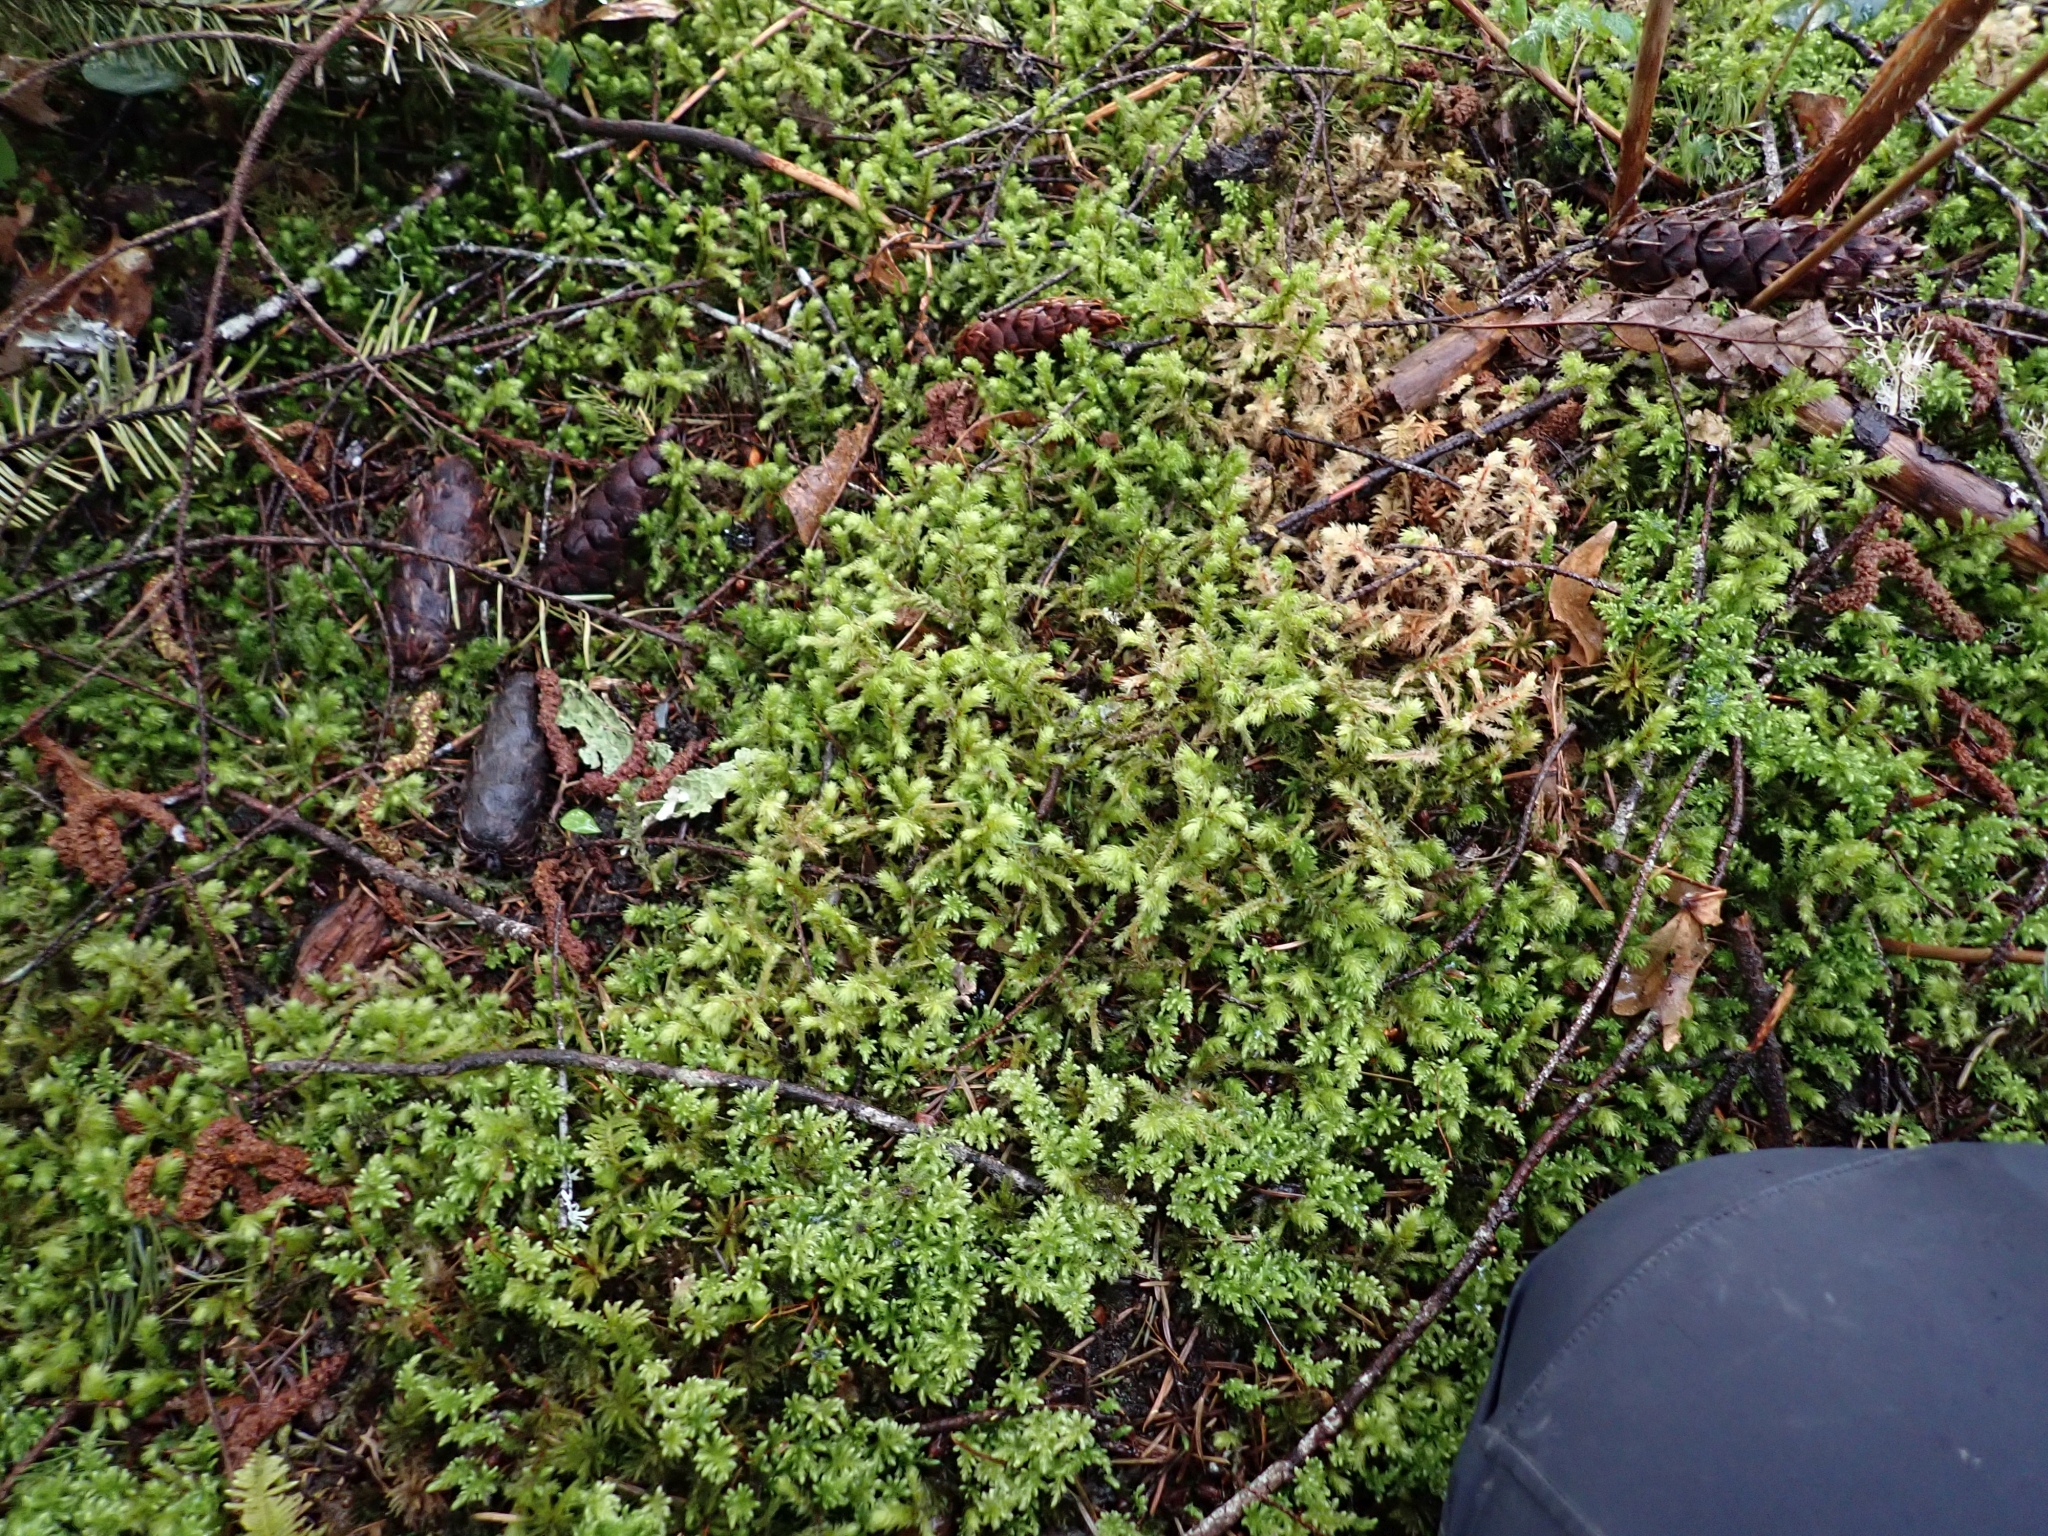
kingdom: Plantae
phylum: Bryophyta
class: Bryopsida
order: Hypnales
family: Hylocomiaceae
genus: Hylocomiadelphus
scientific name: Hylocomiadelphus triquetrus
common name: Rough goose neck moss
